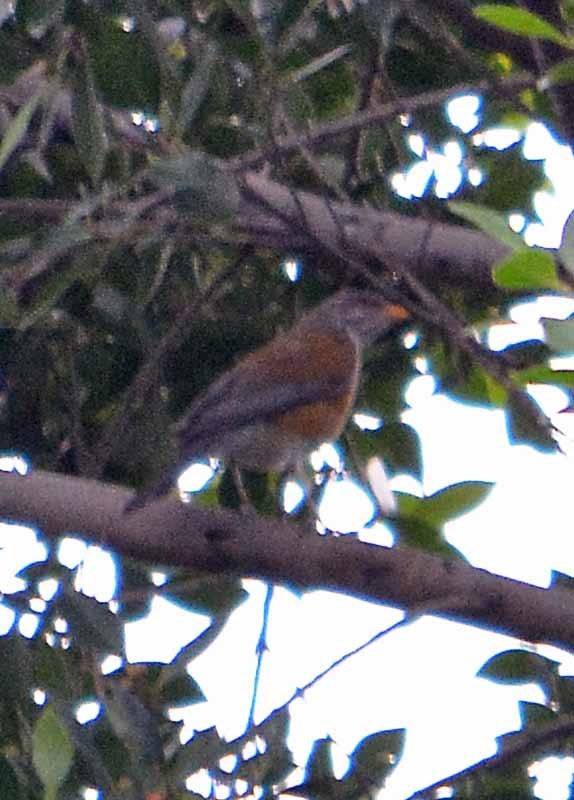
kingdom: Animalia
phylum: Chordata
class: Aves
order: Passeriformes
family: Turdidae
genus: Turdus
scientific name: Turdus rufopalliatus
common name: Rufous-backed robin
